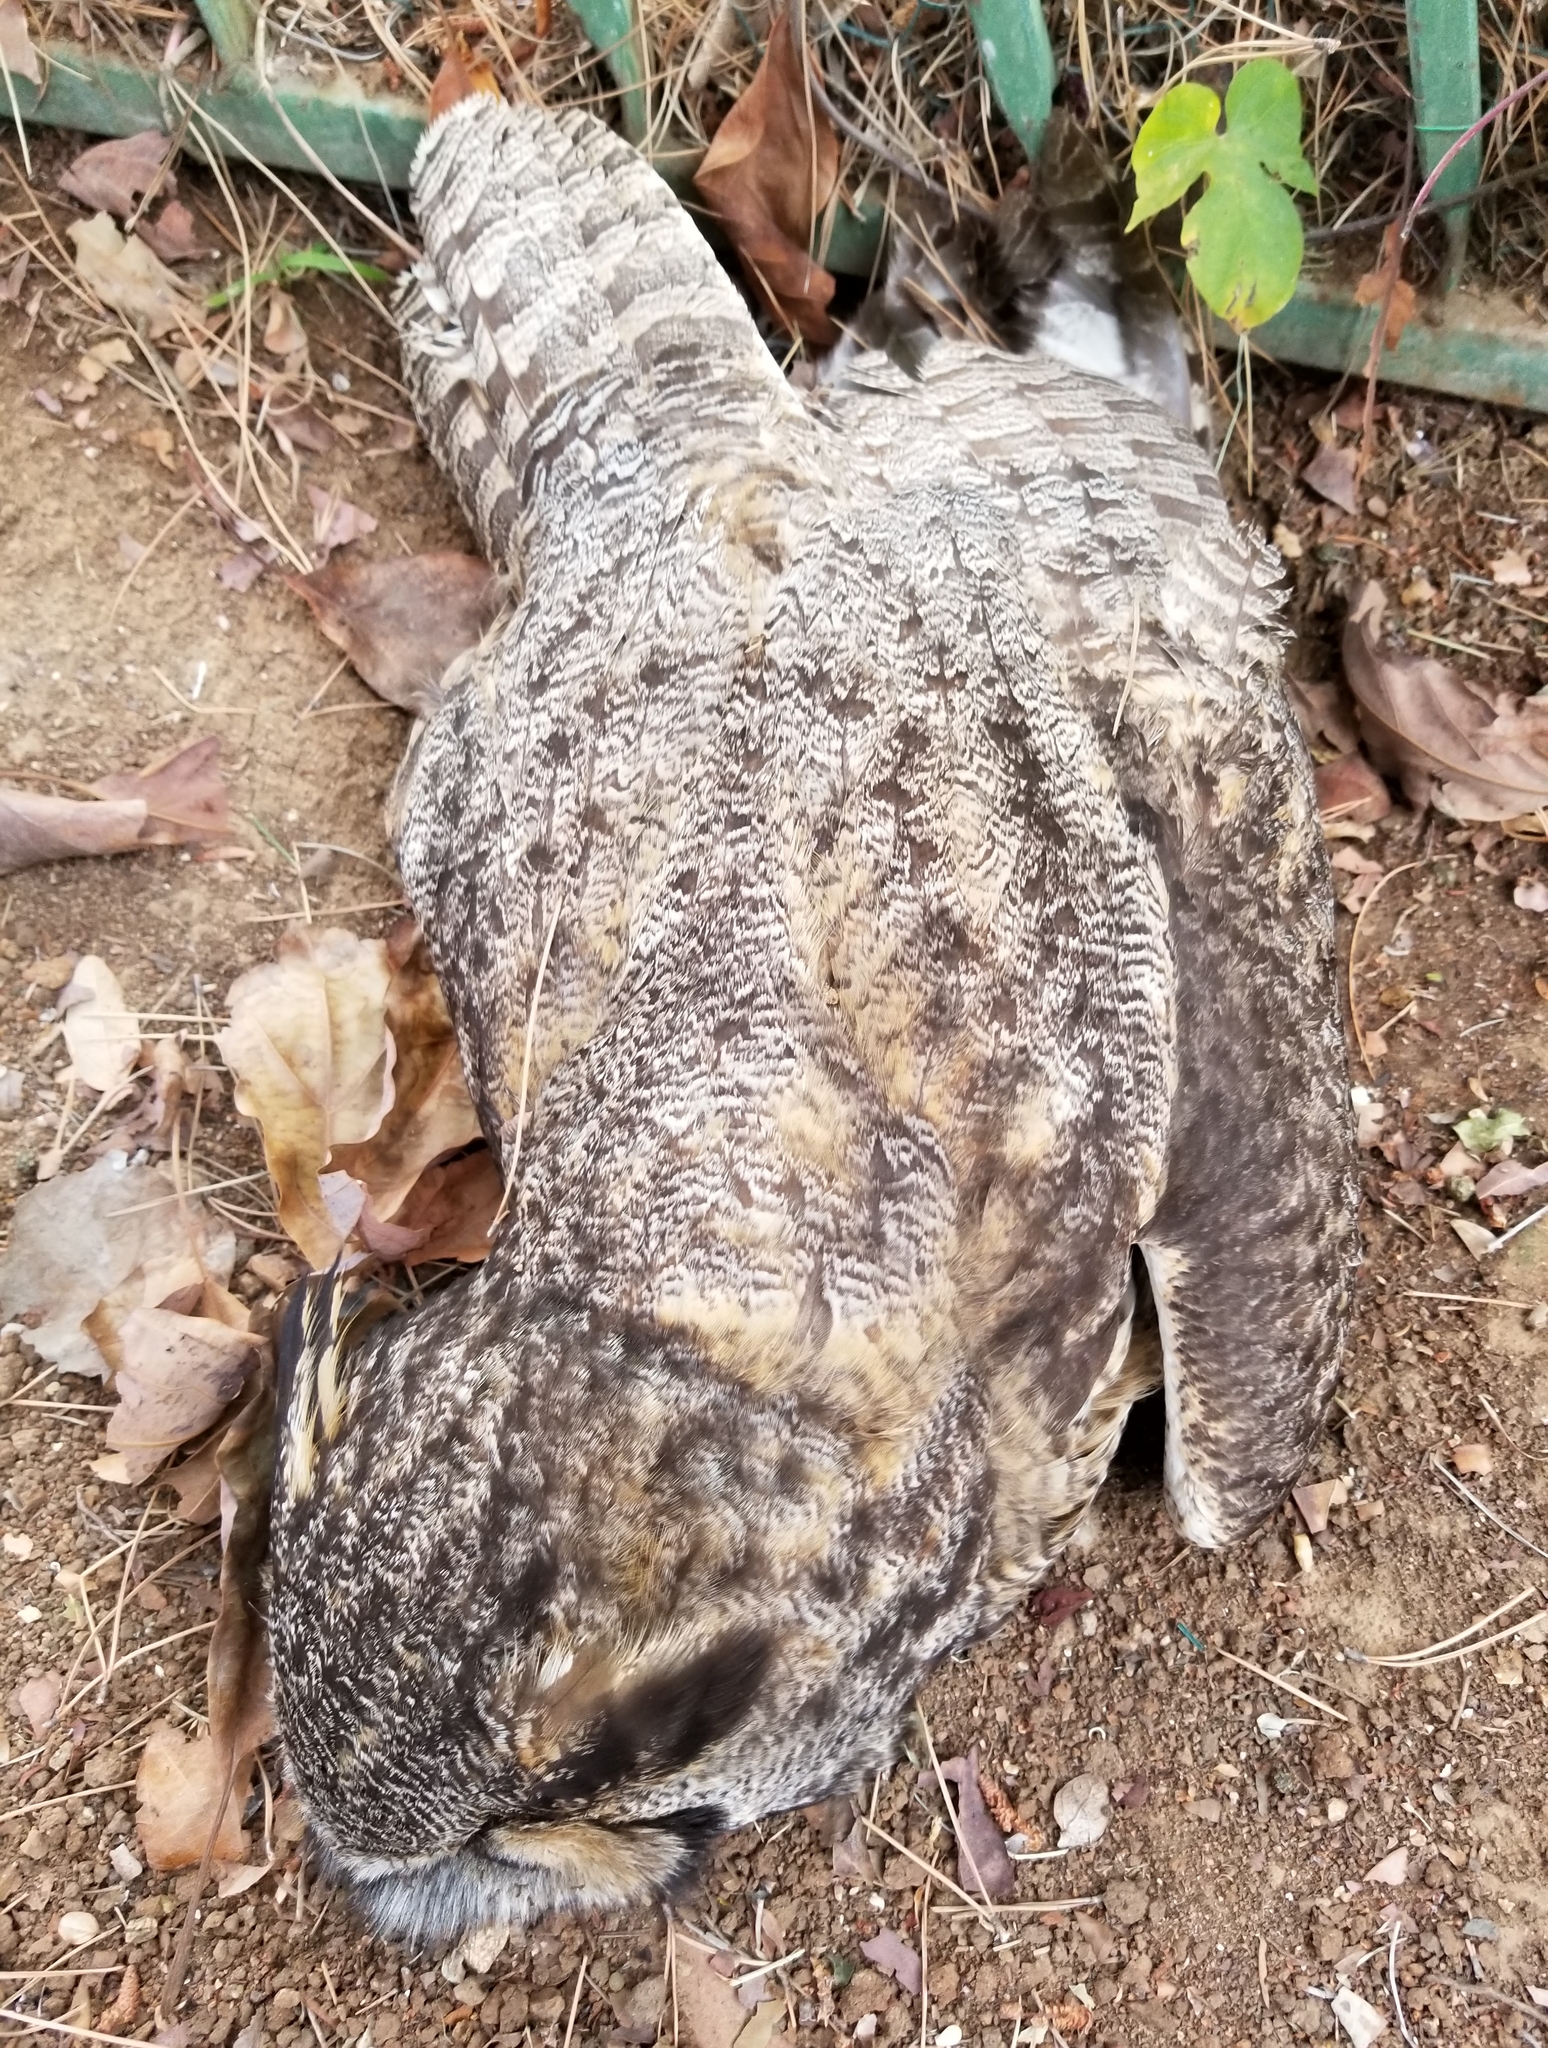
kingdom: Animalia
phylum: Chordata
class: Aves
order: Strigiformes
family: Strigidae
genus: Bubo
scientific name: Bubo virginianus
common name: Great horned owl
